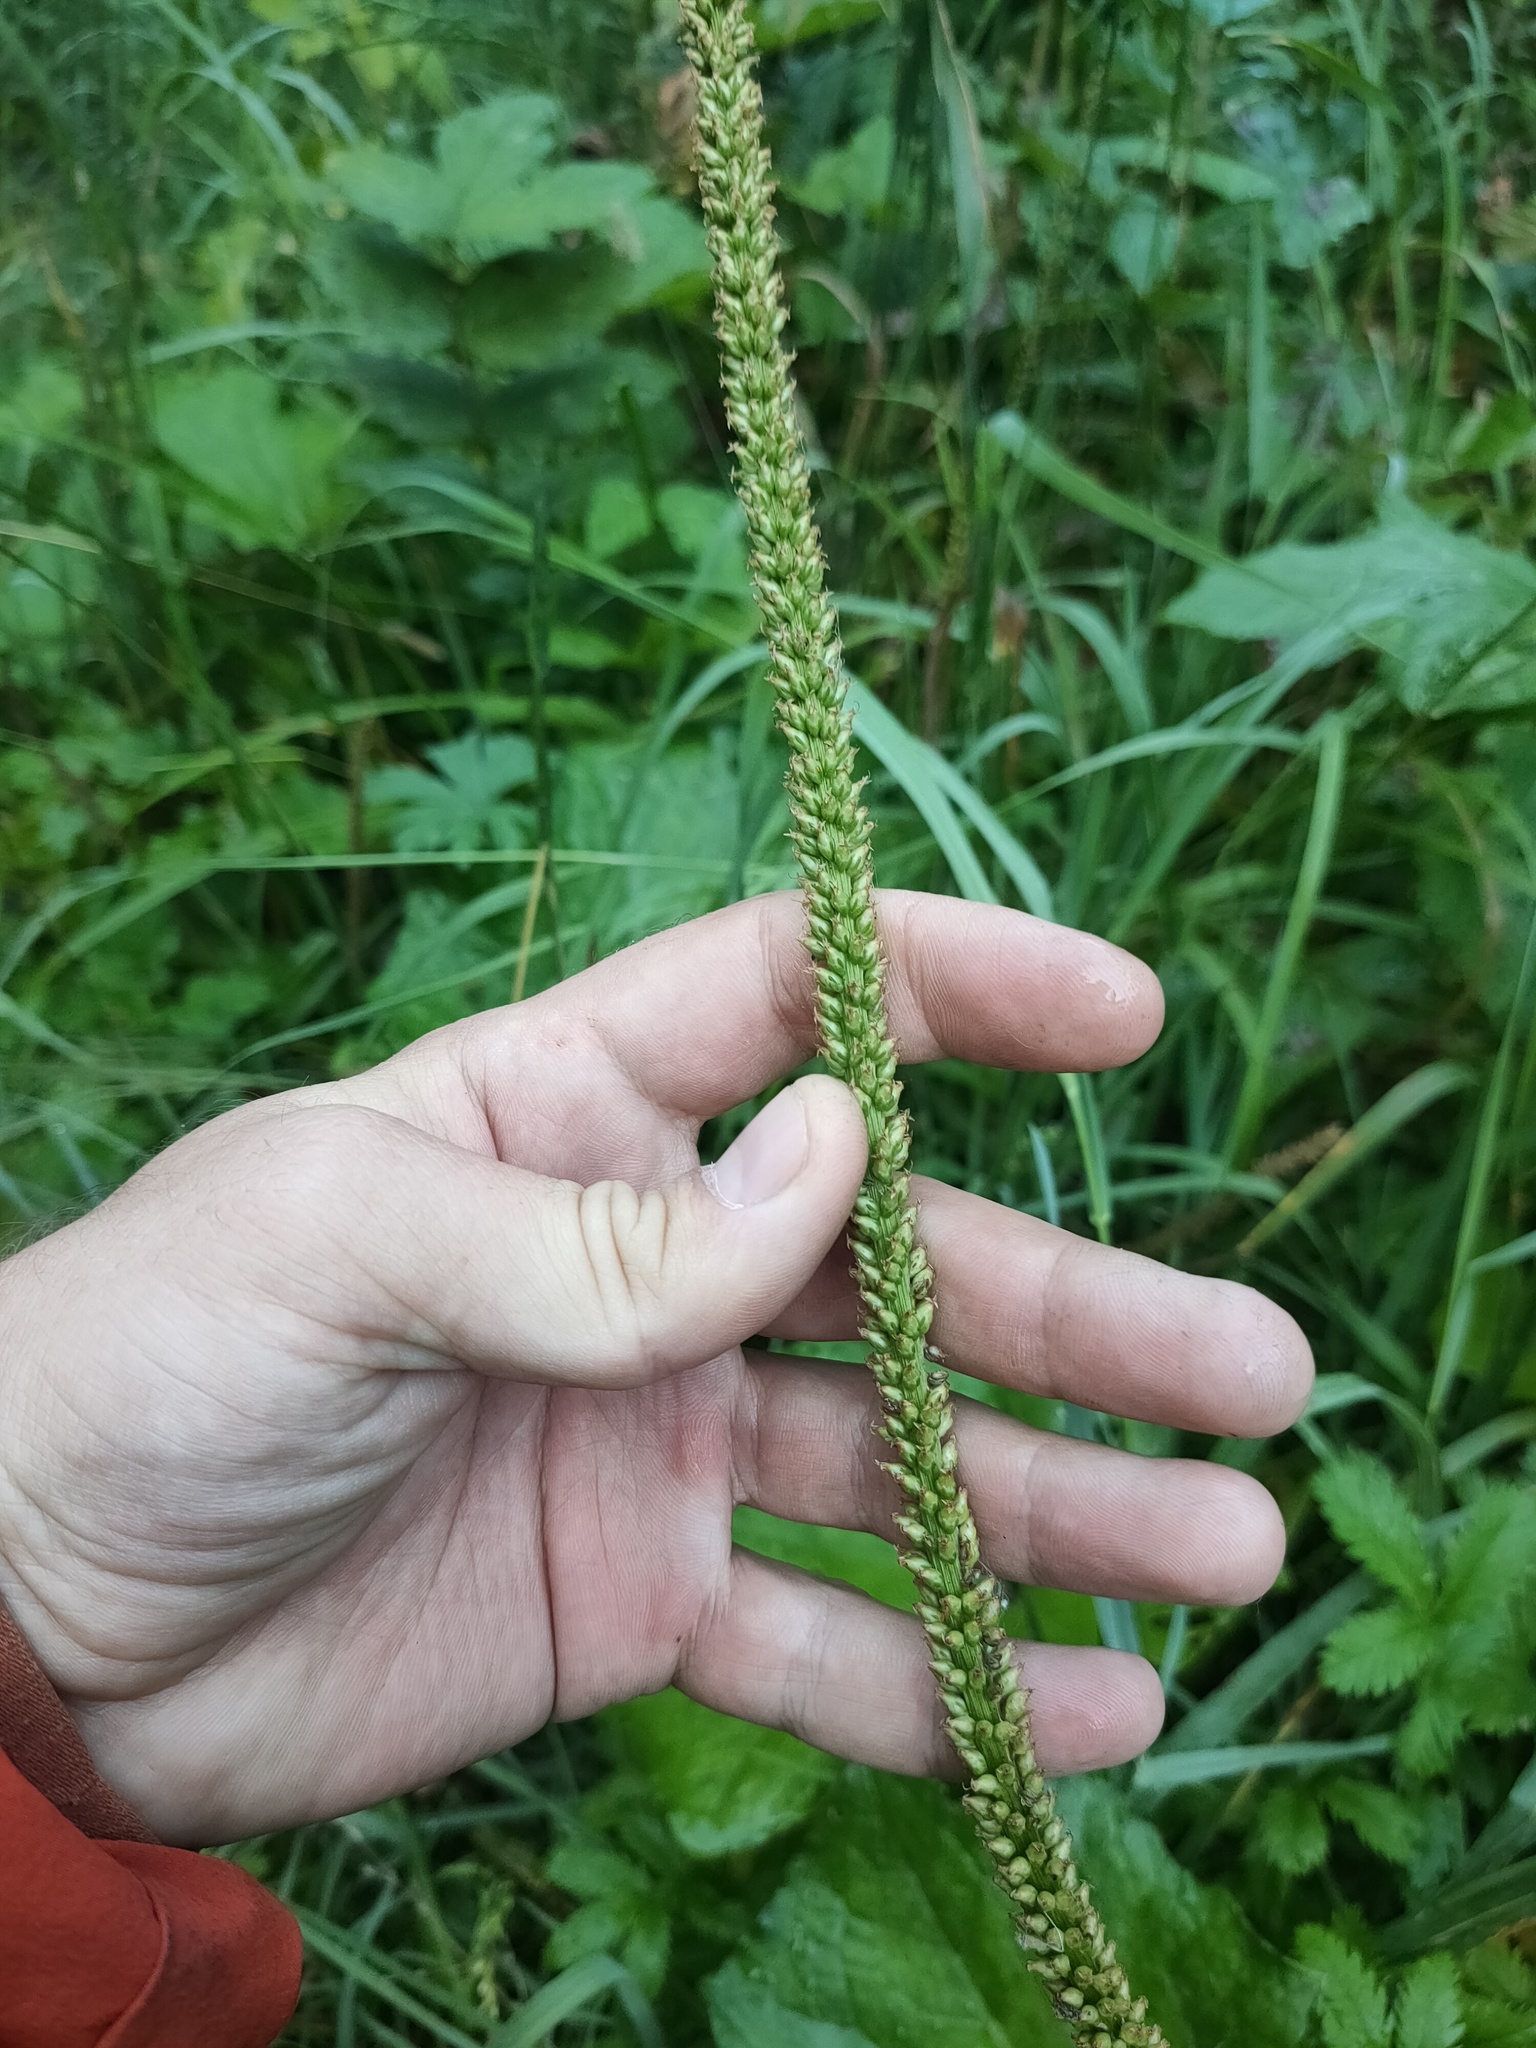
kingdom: Plantae
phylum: Tracheophyta
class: Magnoliopsida
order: Lamiales
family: Plantaginaceae
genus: Plantago
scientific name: Plantago major
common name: Common plantain
